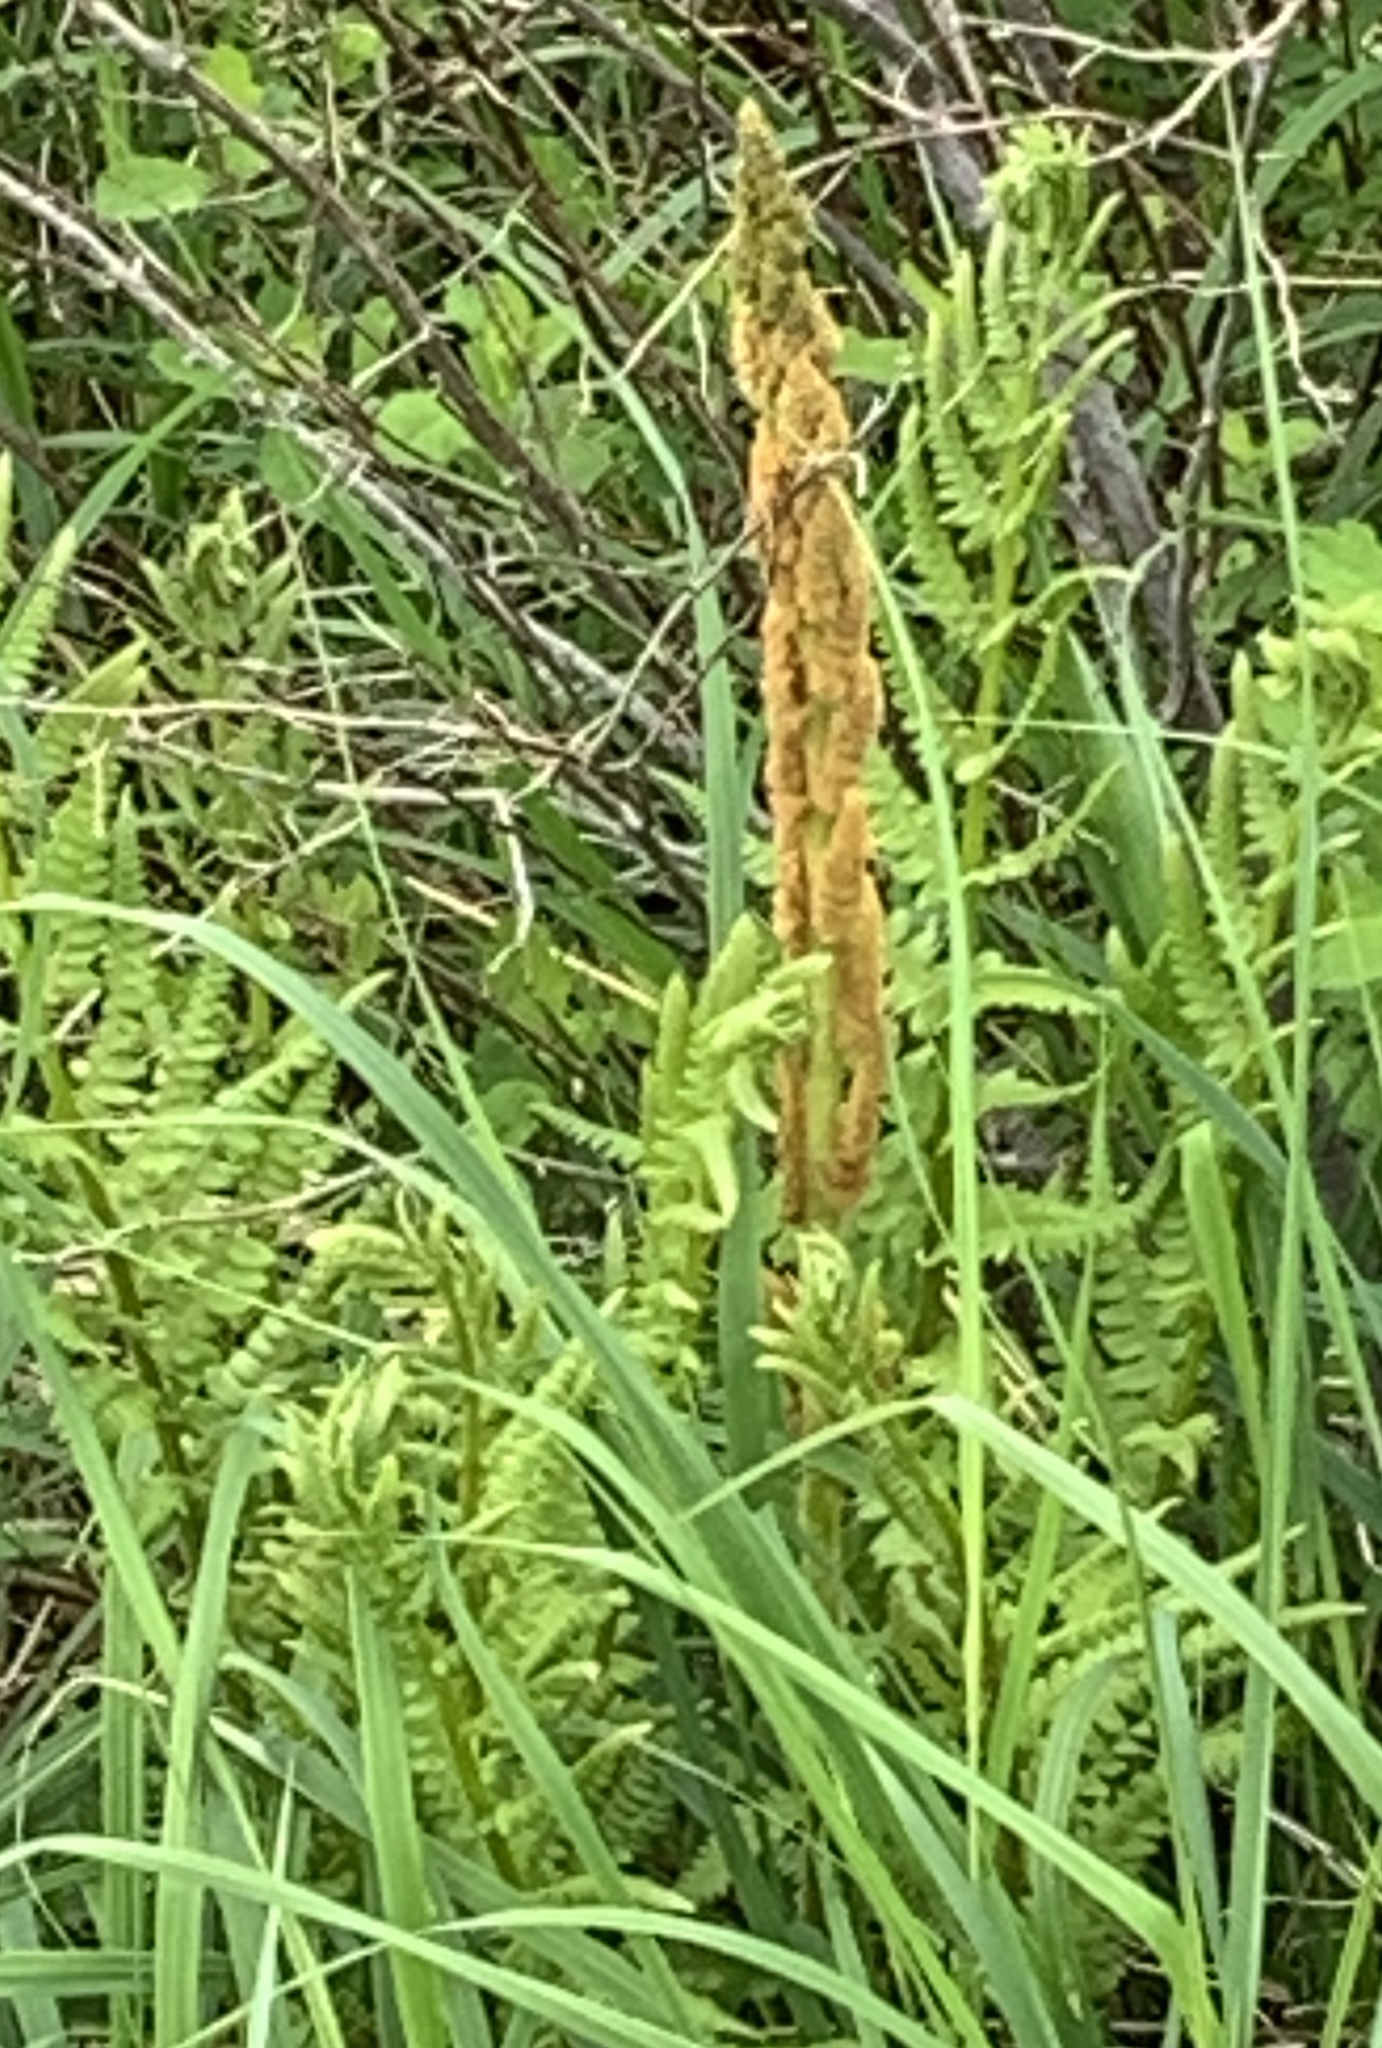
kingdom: Plantae
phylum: Tracheophyta
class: Polypodiopsida
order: Osmundales
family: Osmundaceae
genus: Osmundastrum
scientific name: Osmundastrum cinnamomeum
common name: Cinnamon fern
